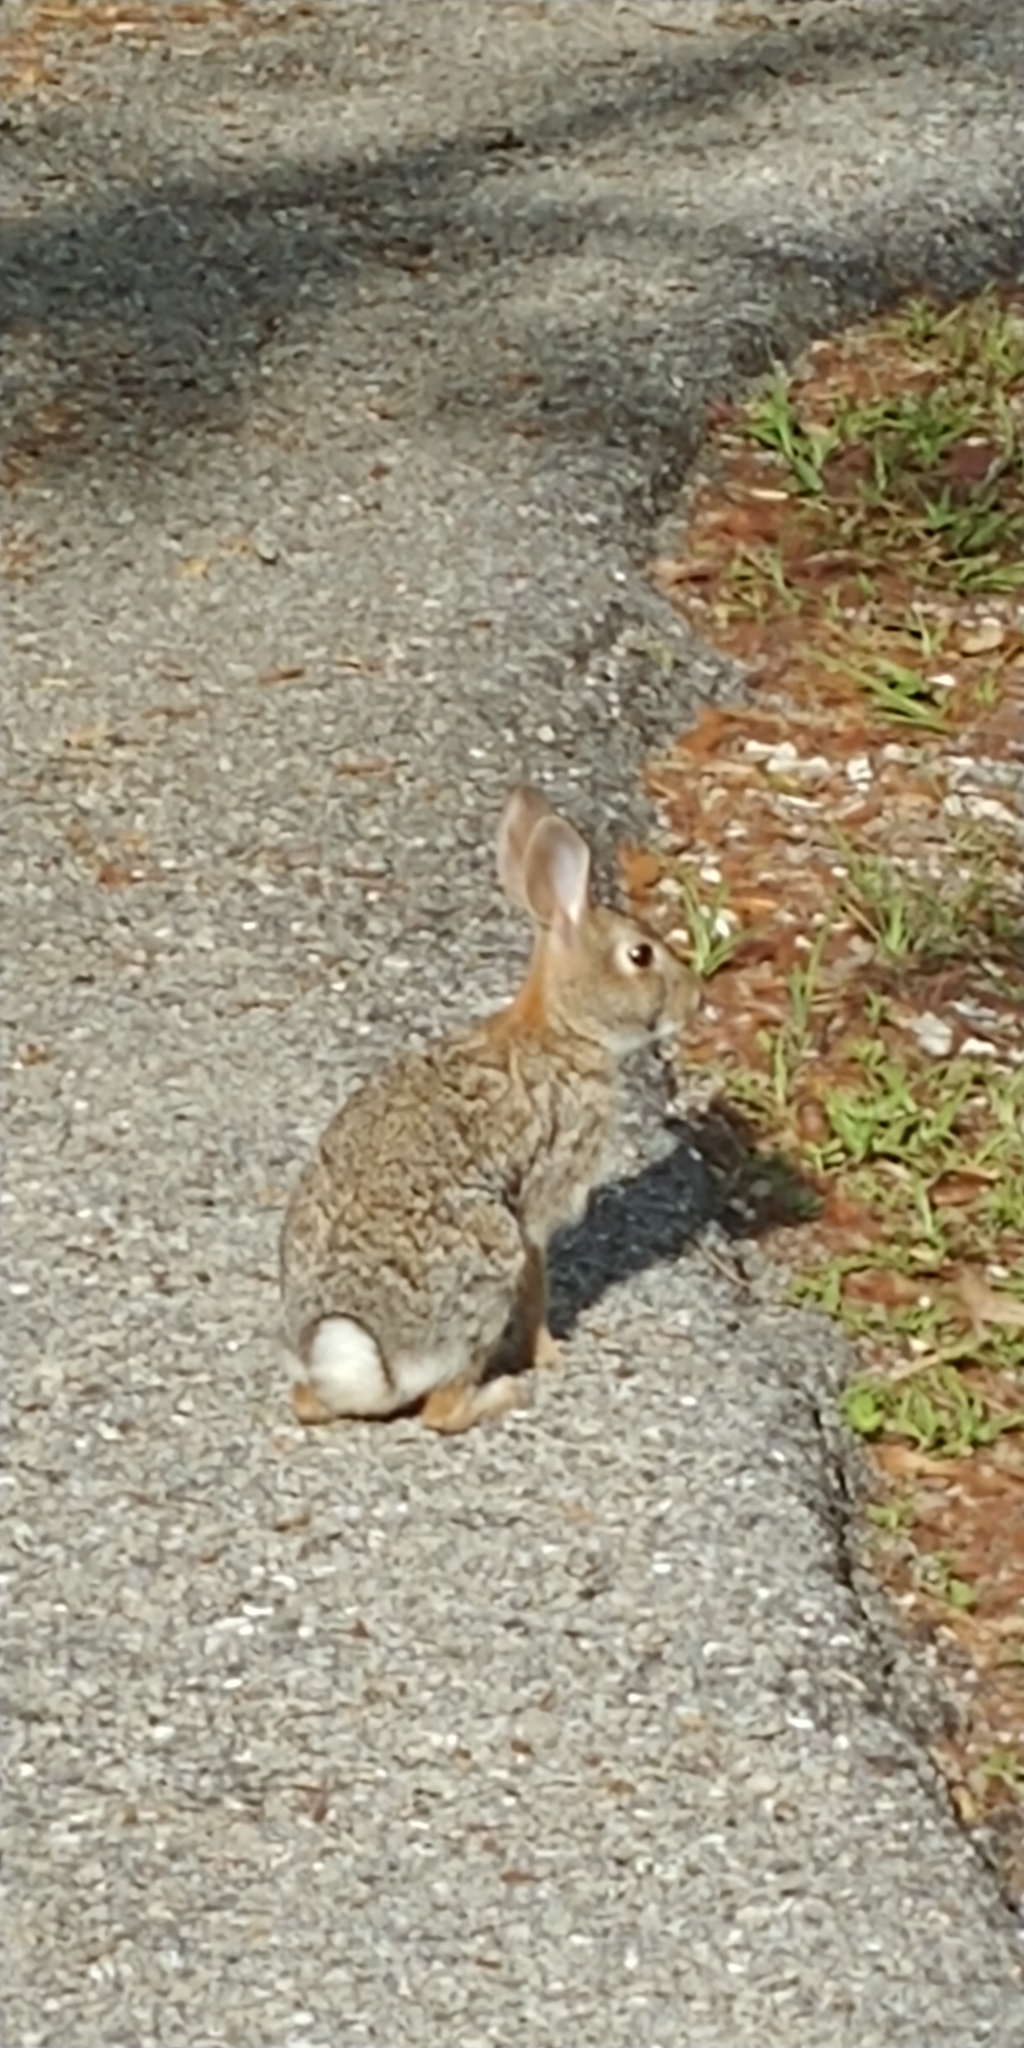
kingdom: Animalia
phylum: Chordata
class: Mammalia
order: Lagomorpha
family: Leporidae
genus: Sylvilagus
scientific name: Sylvilagus floridanus
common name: Eastern cottontail
